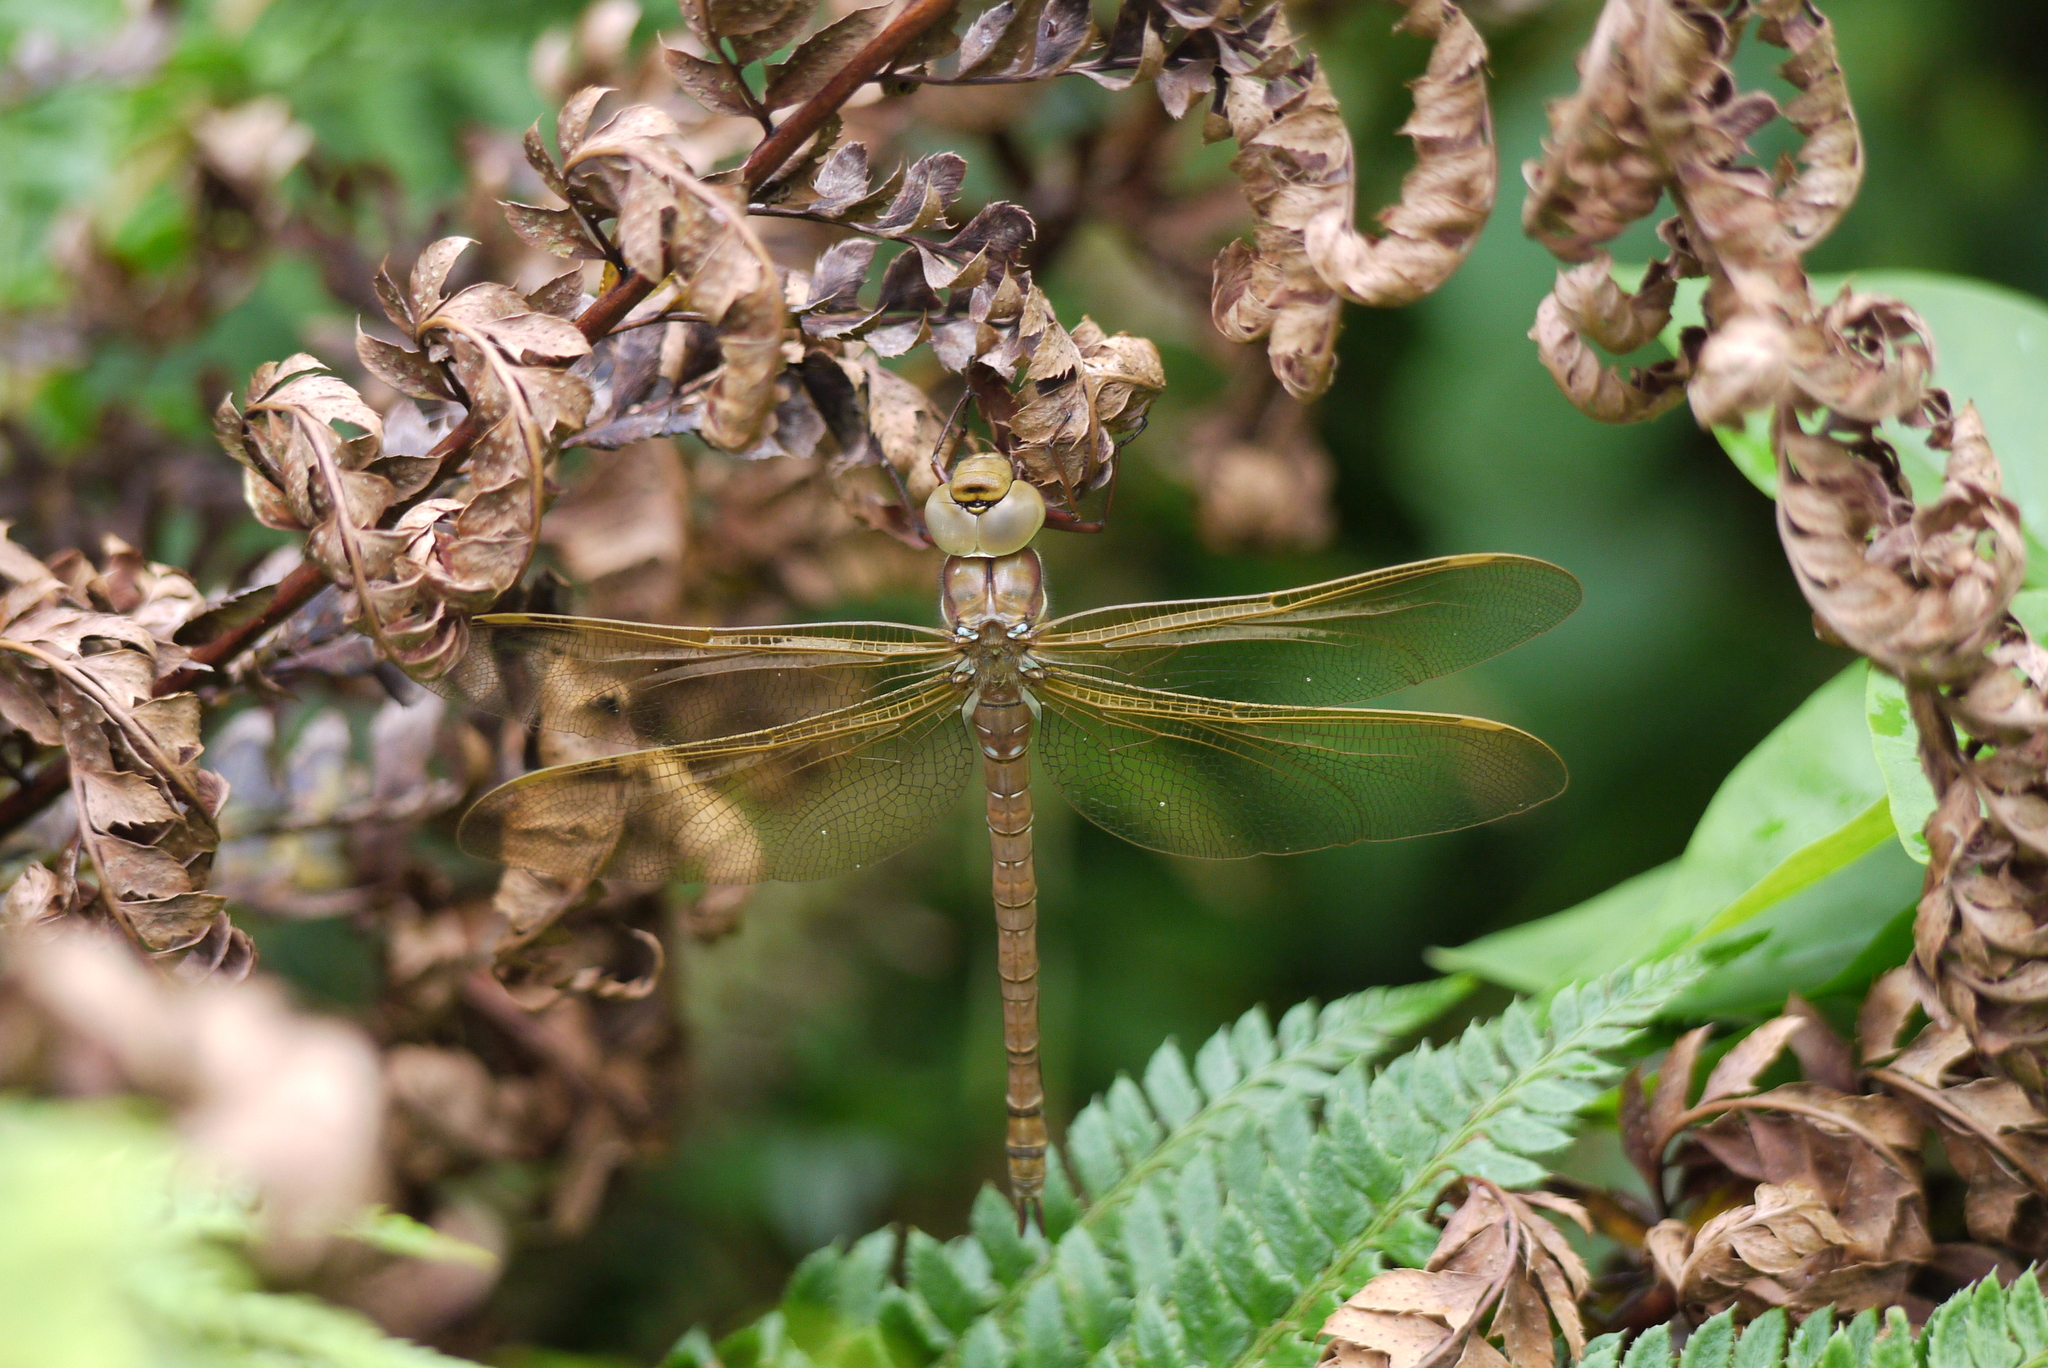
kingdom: Animalia
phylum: Arthropoda
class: Insecta
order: Odonata
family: Aeshnidae
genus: Aeshna
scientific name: Aeshna grandis
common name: Brown hawker
